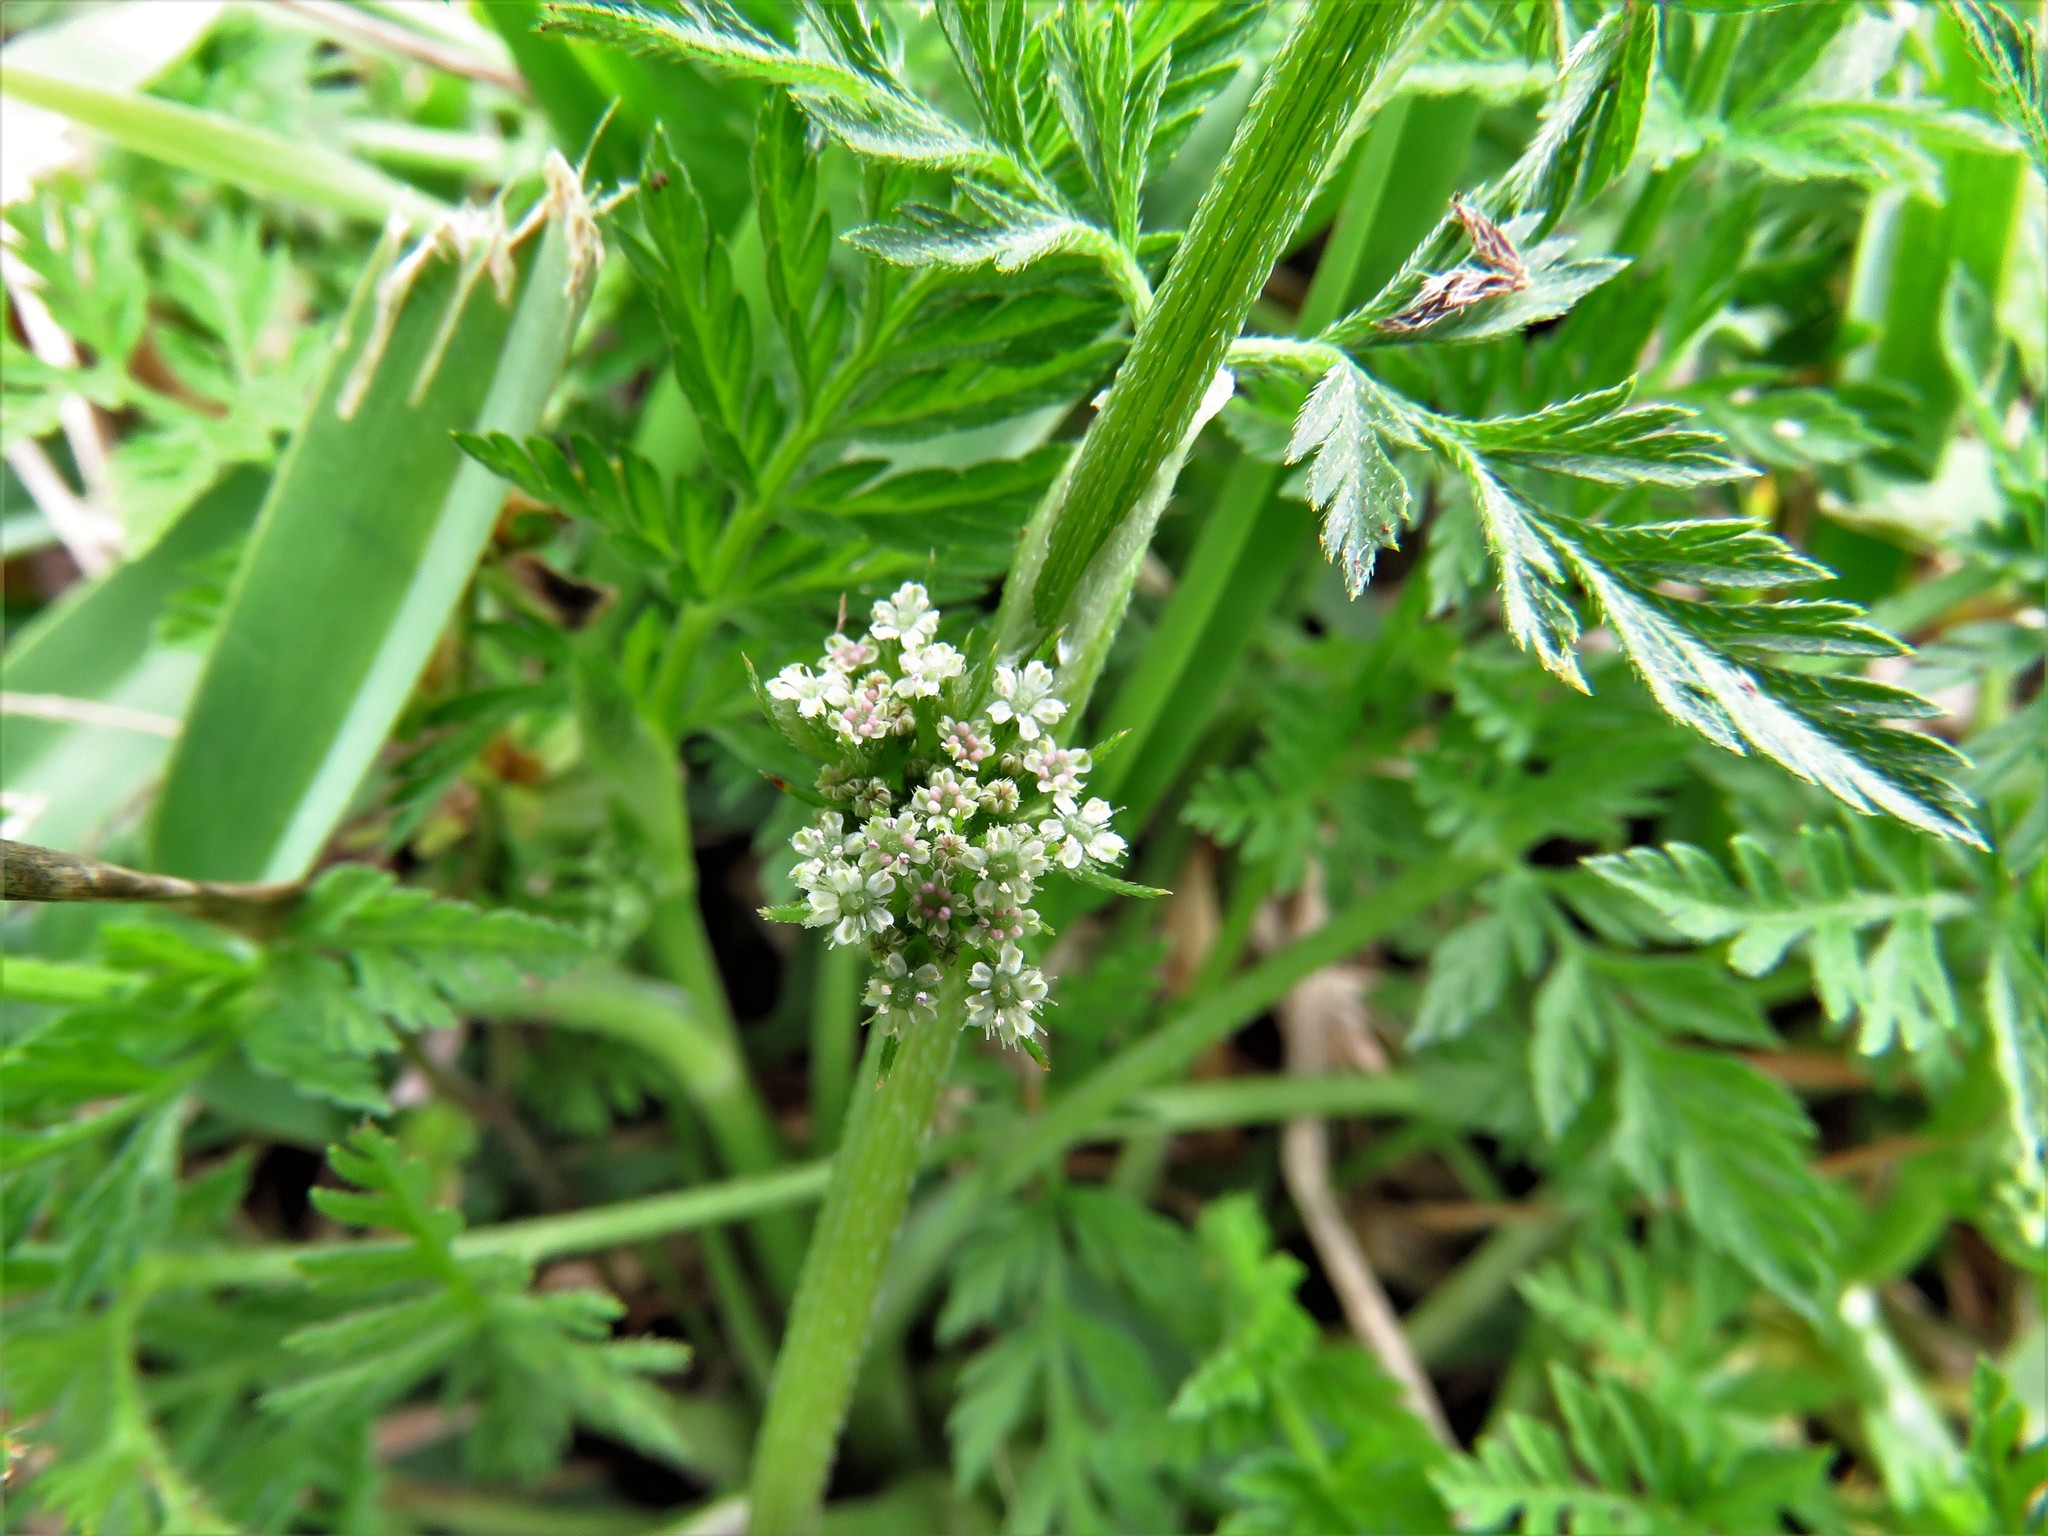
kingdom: Plantae
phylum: Tracheophyta
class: Magnoliopsida
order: Apiales
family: Apiaceae
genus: Torilis
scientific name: Torilis nodosa
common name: Knotted hedge-parsley
